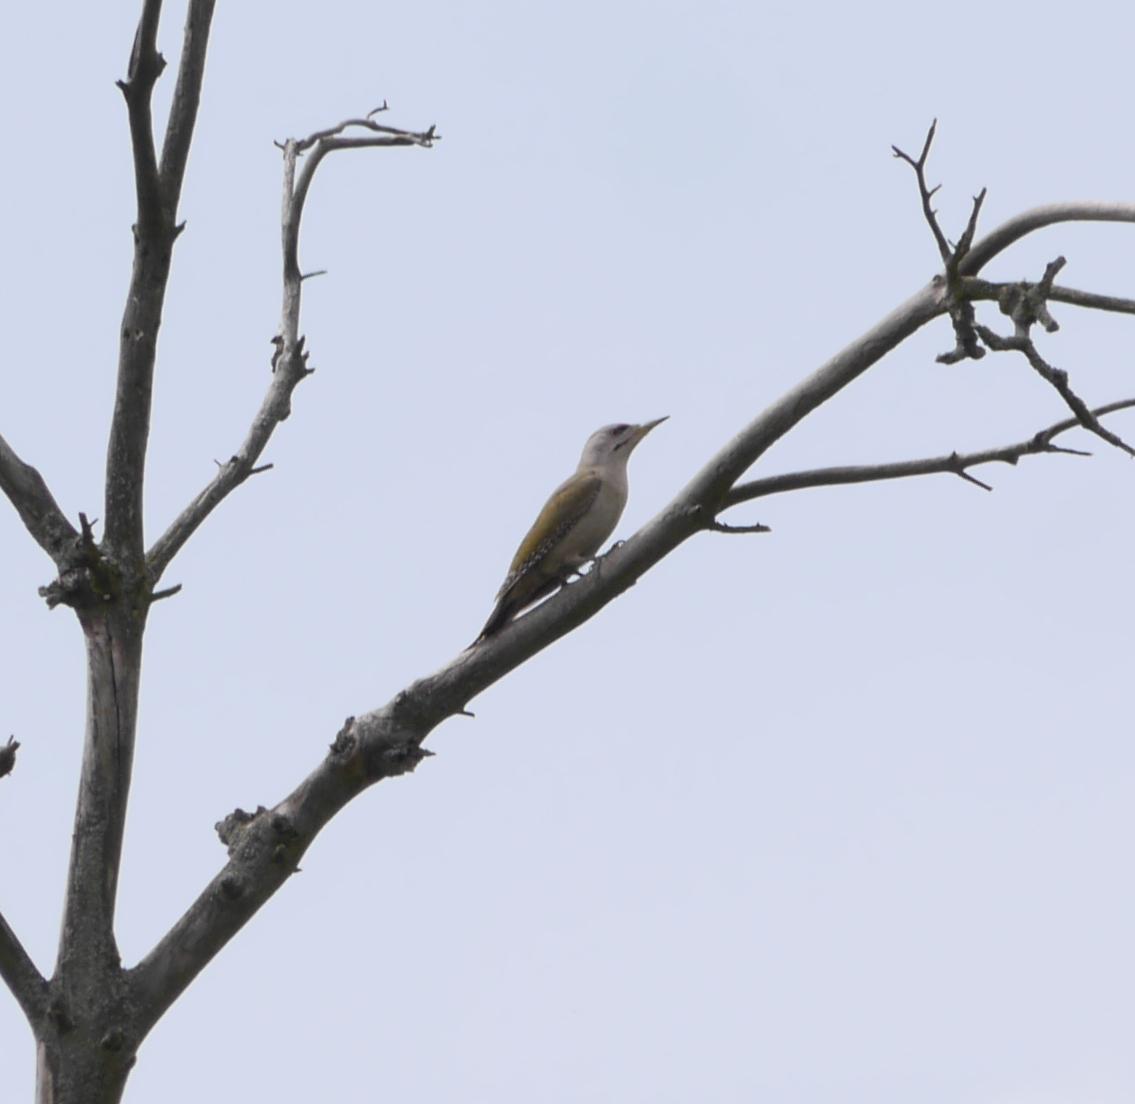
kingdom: Animalia
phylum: Chordata
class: Aves
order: Piciformes
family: Picidae
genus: Picus
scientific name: Picus canus
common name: Grey-headed woodpecker
